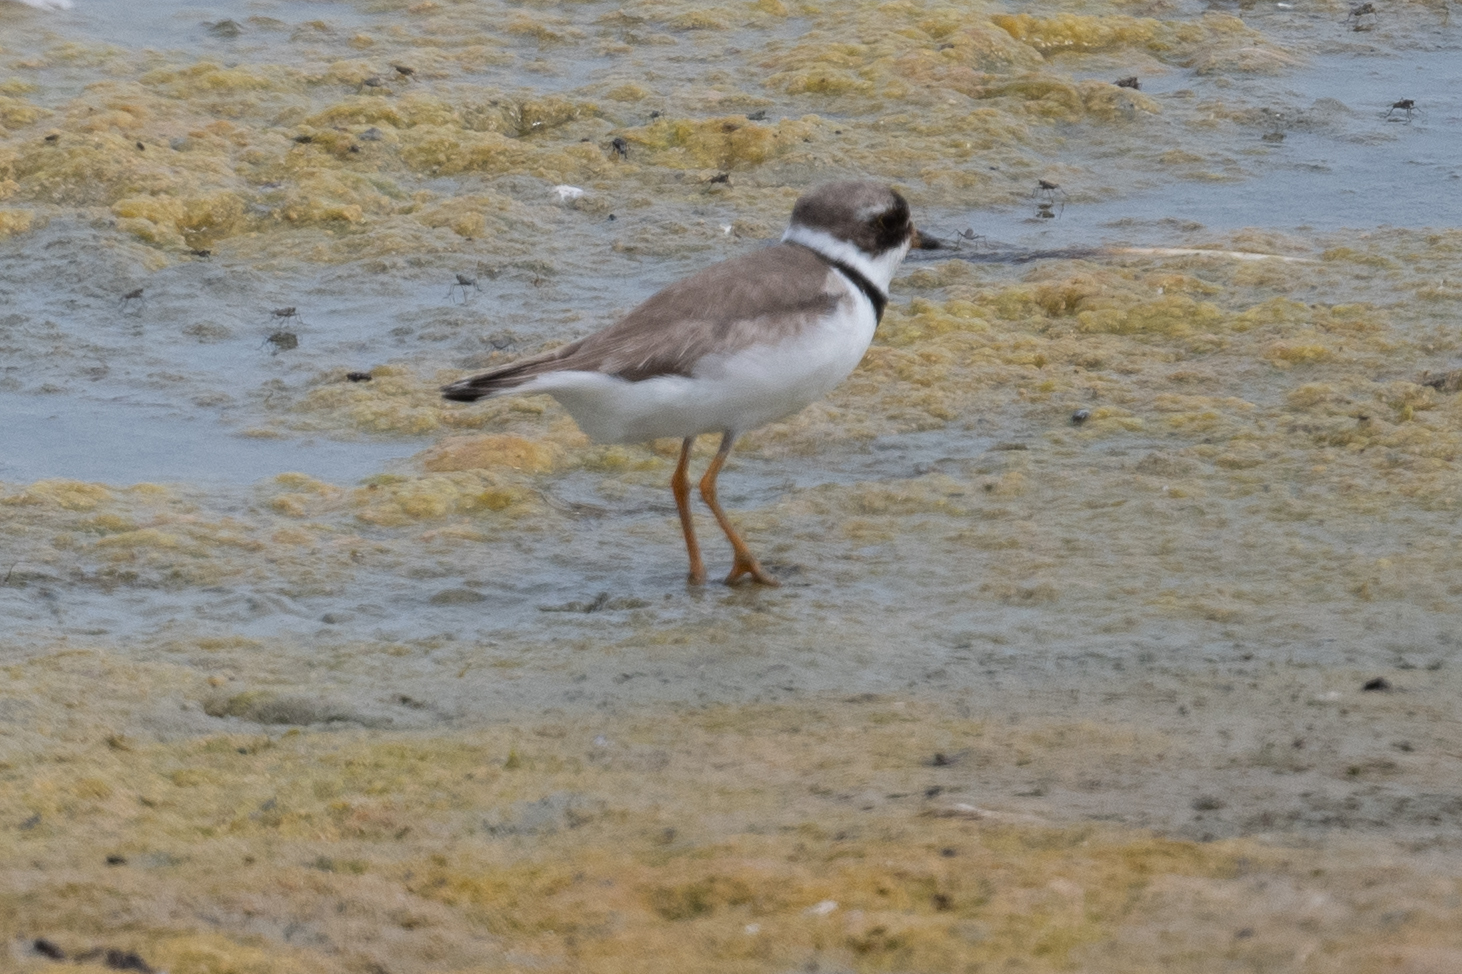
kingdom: Animalia
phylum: Chordata
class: Aves
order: Charadriiformes
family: Charadriidae
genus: Charadrius
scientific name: Charadrius semipalmatus
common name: Semipalmated plover
